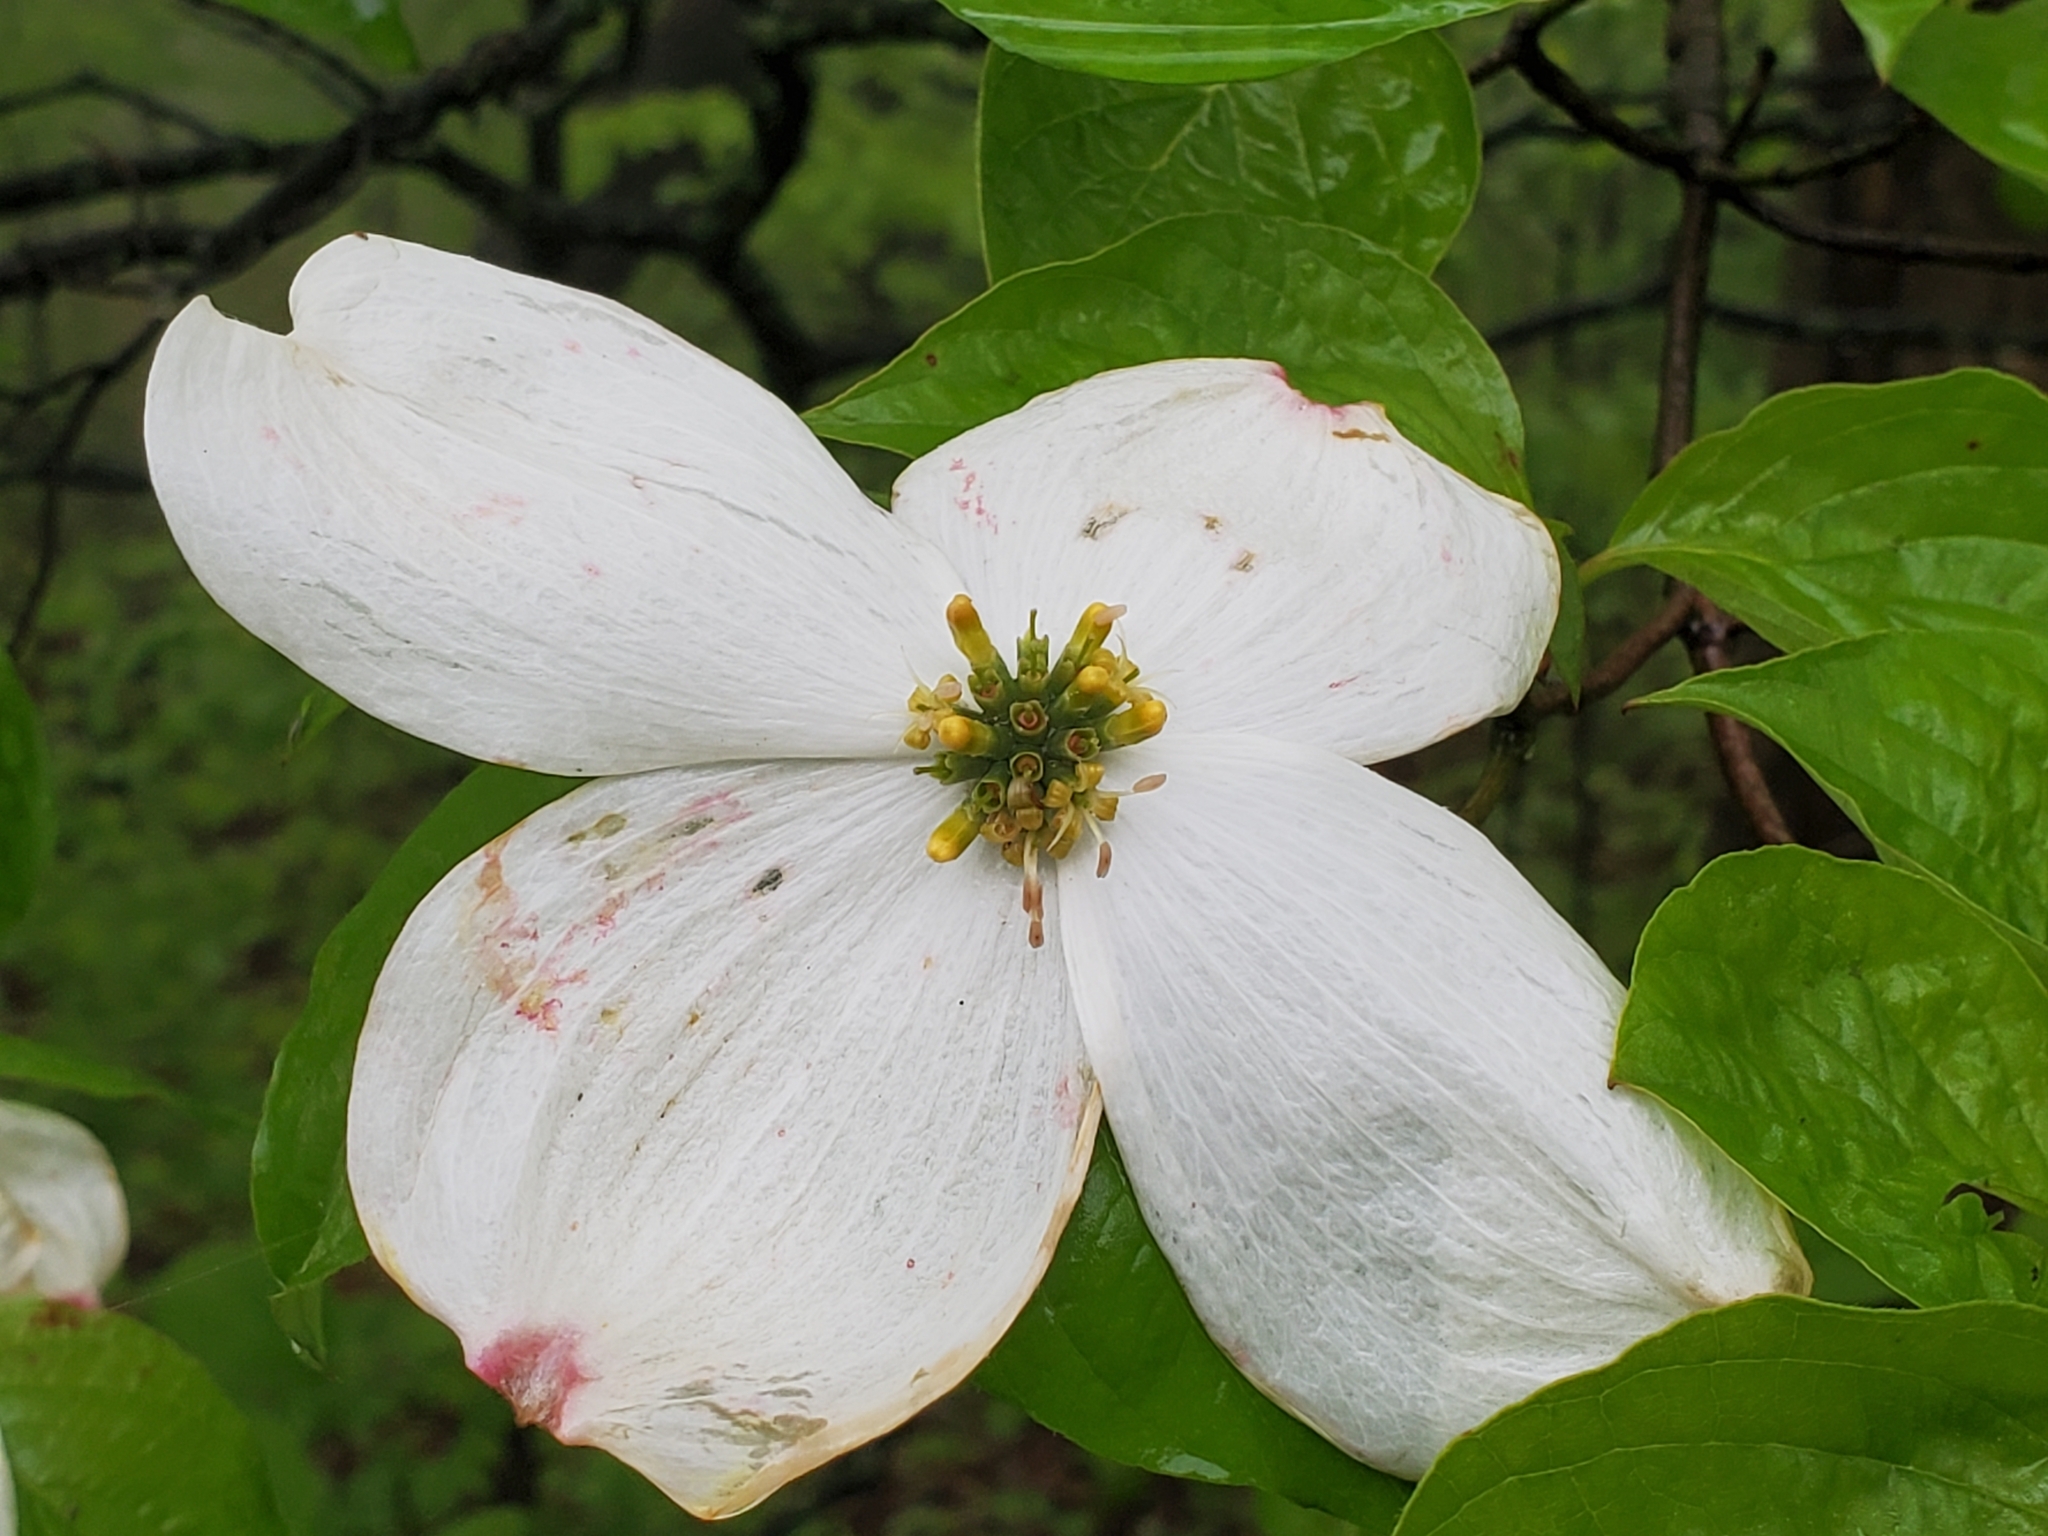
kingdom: Plantae
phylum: Tracheophyta
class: Magnoliopsida
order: Cornales
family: Cornaceae
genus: Cornus
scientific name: Cornus florida
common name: Flowering dogwood
